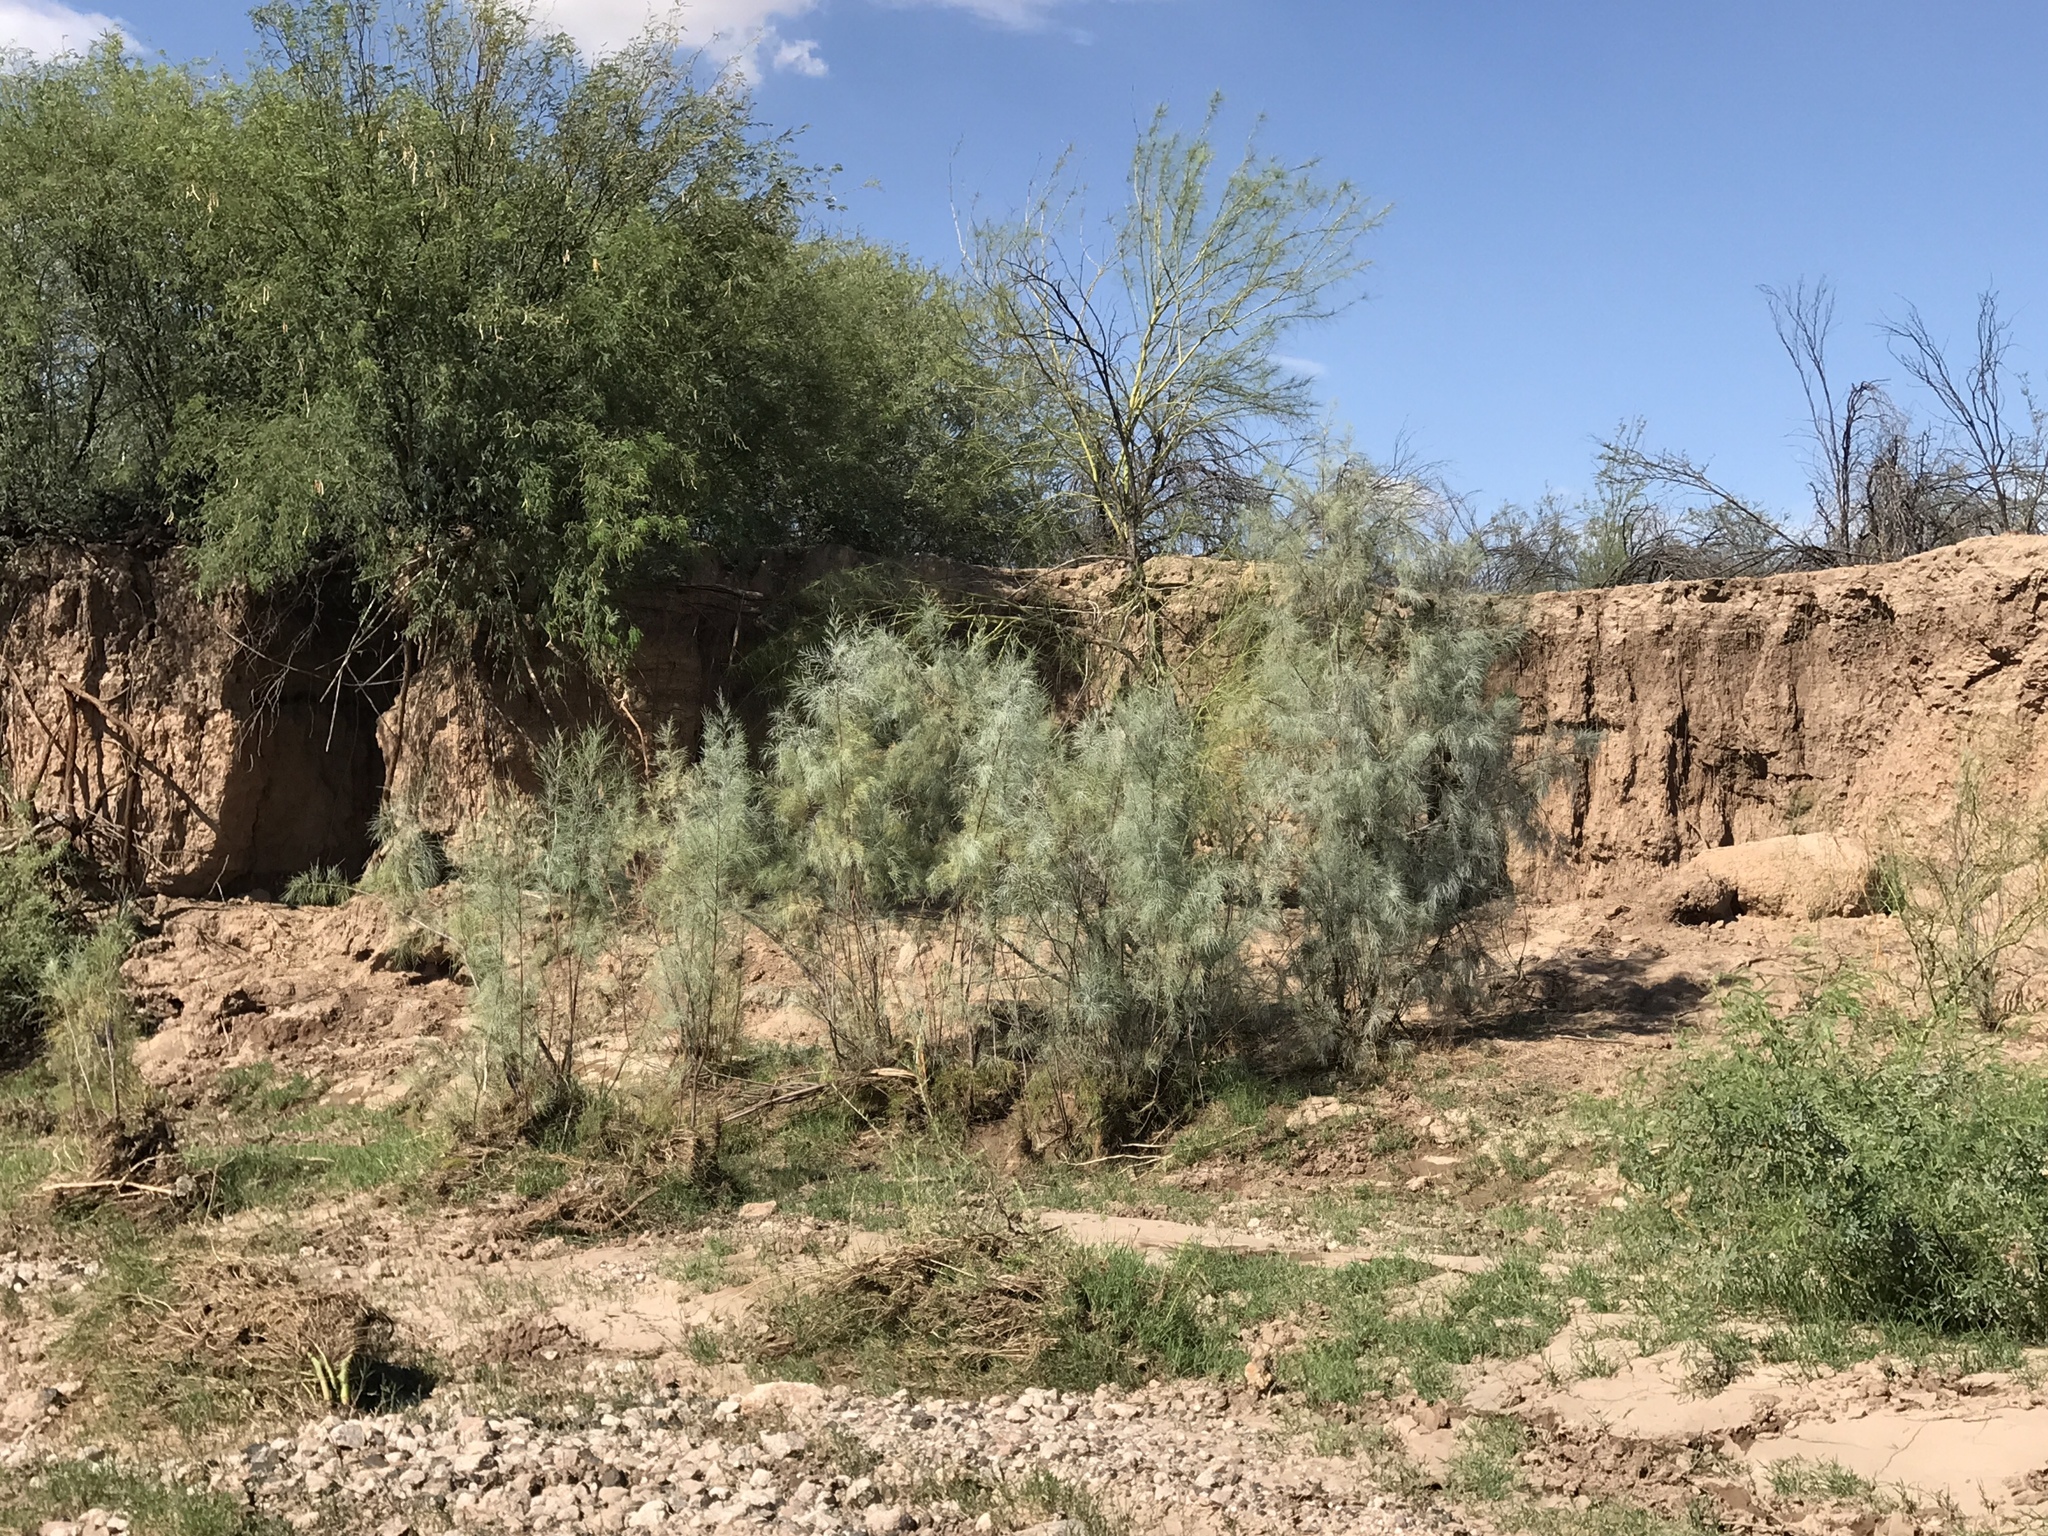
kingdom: Plantae
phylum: Tracheophyta
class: Magnoliopsida
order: Caryophyllales
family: Tamaricaceae
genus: Tamarix
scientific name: Tamarix aphylla
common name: Athel tamarisk
